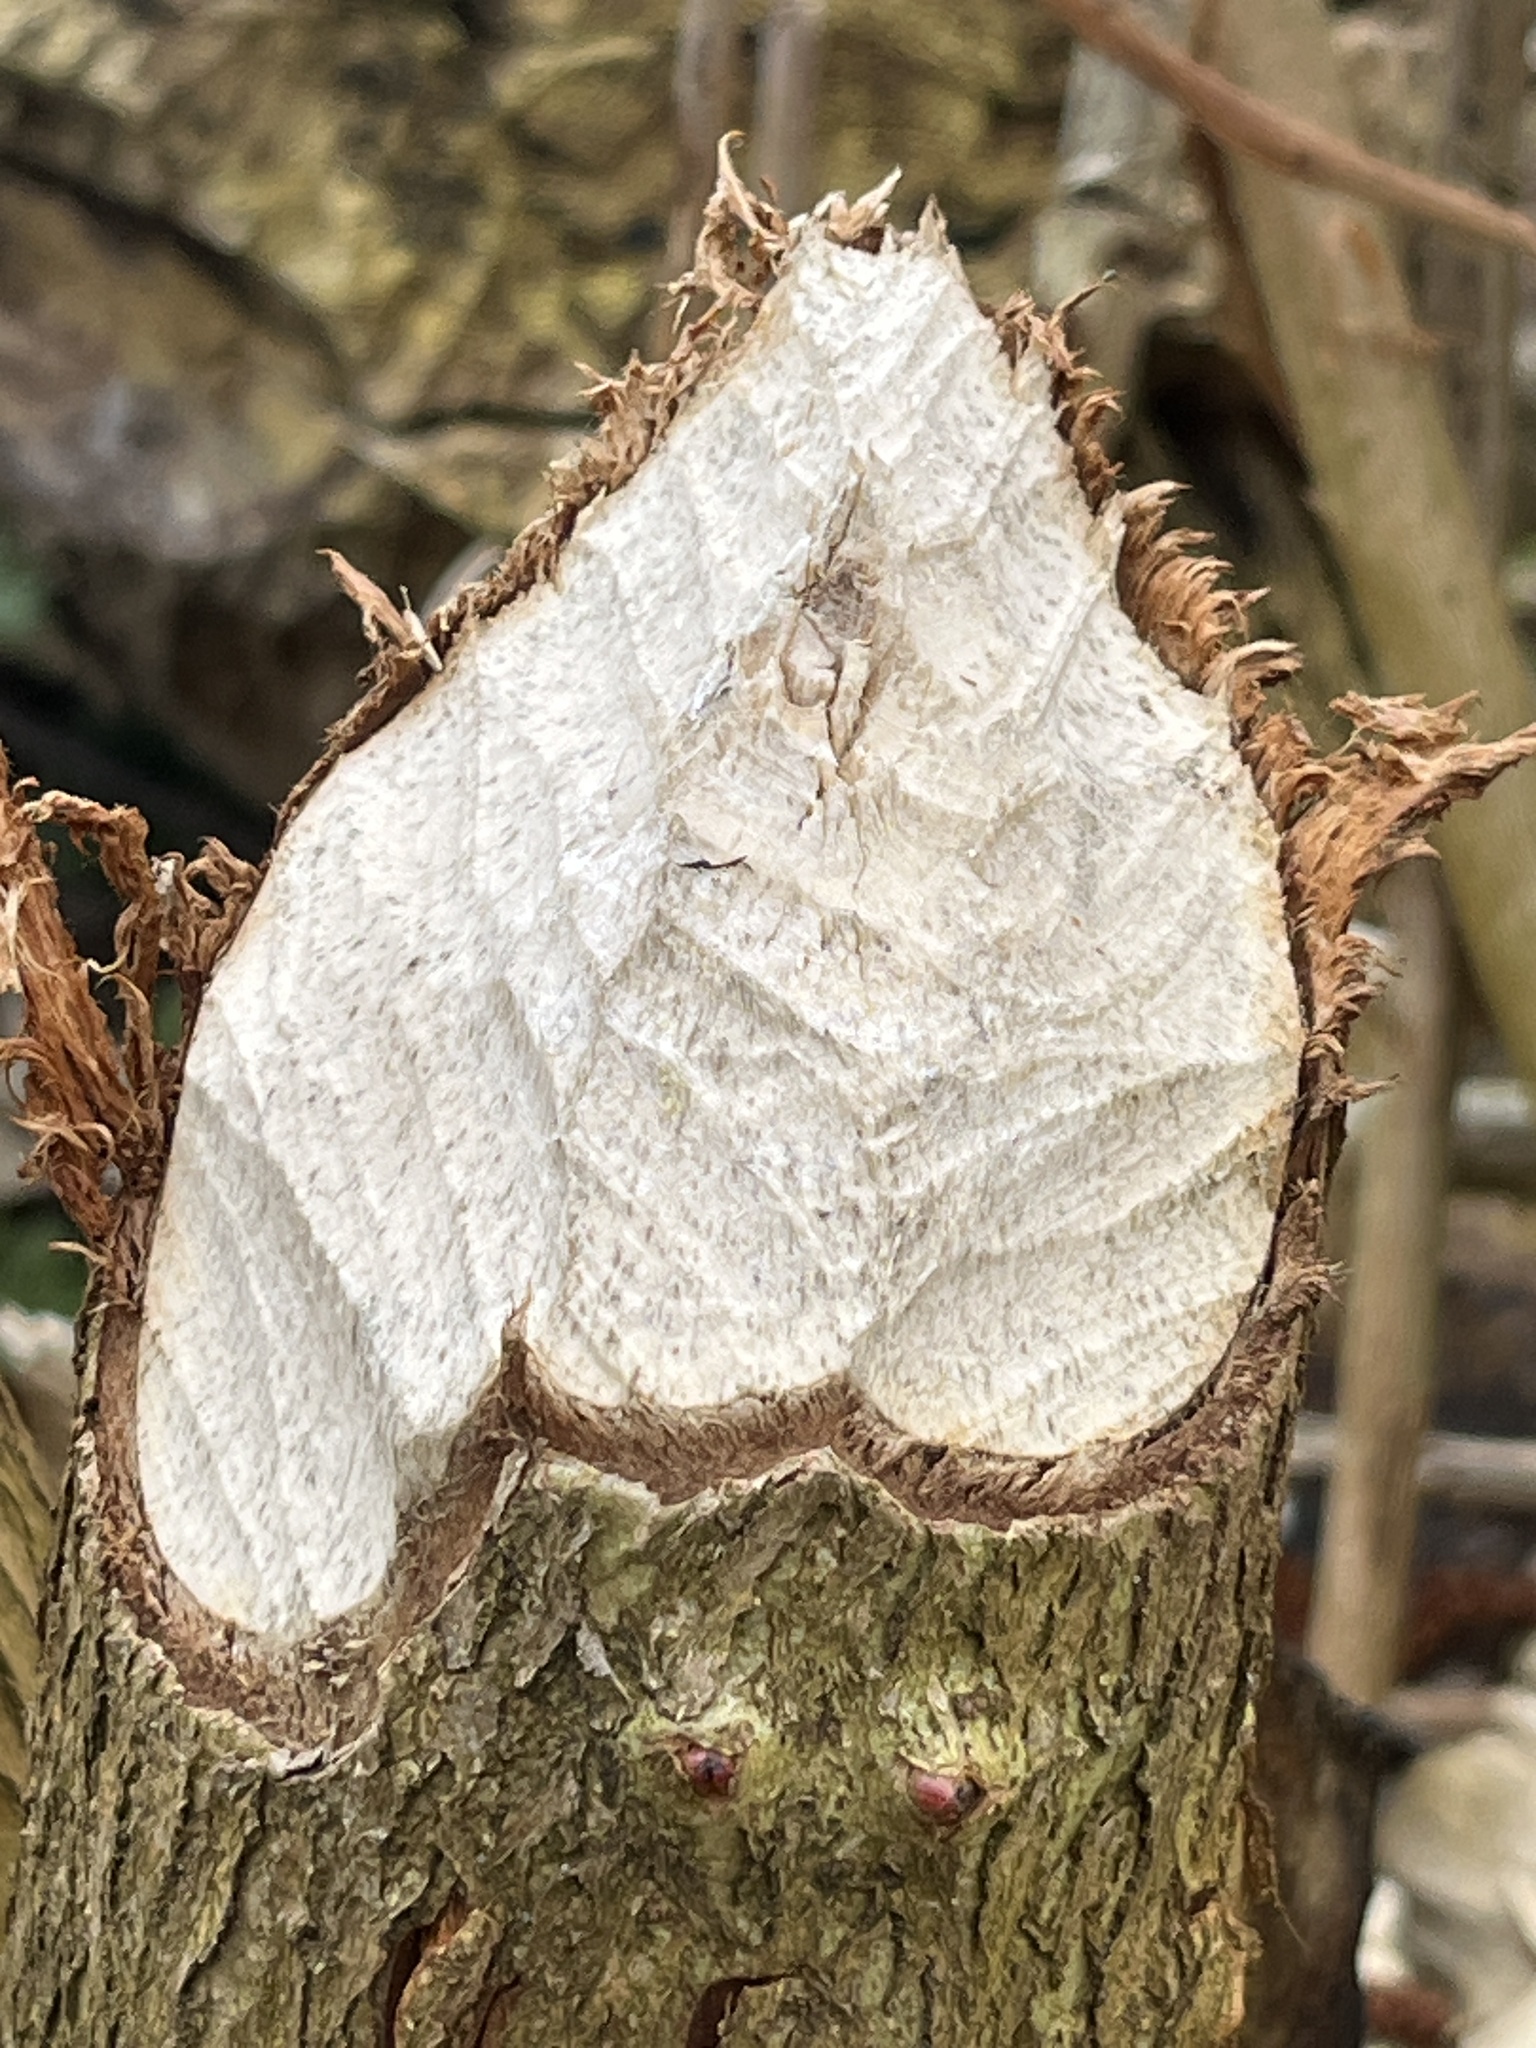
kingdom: Animalia
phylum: Chordata
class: Mammalia
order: Rodentia
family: Castoridae
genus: Castor
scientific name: Castor fiber
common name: Eurasian beaver
